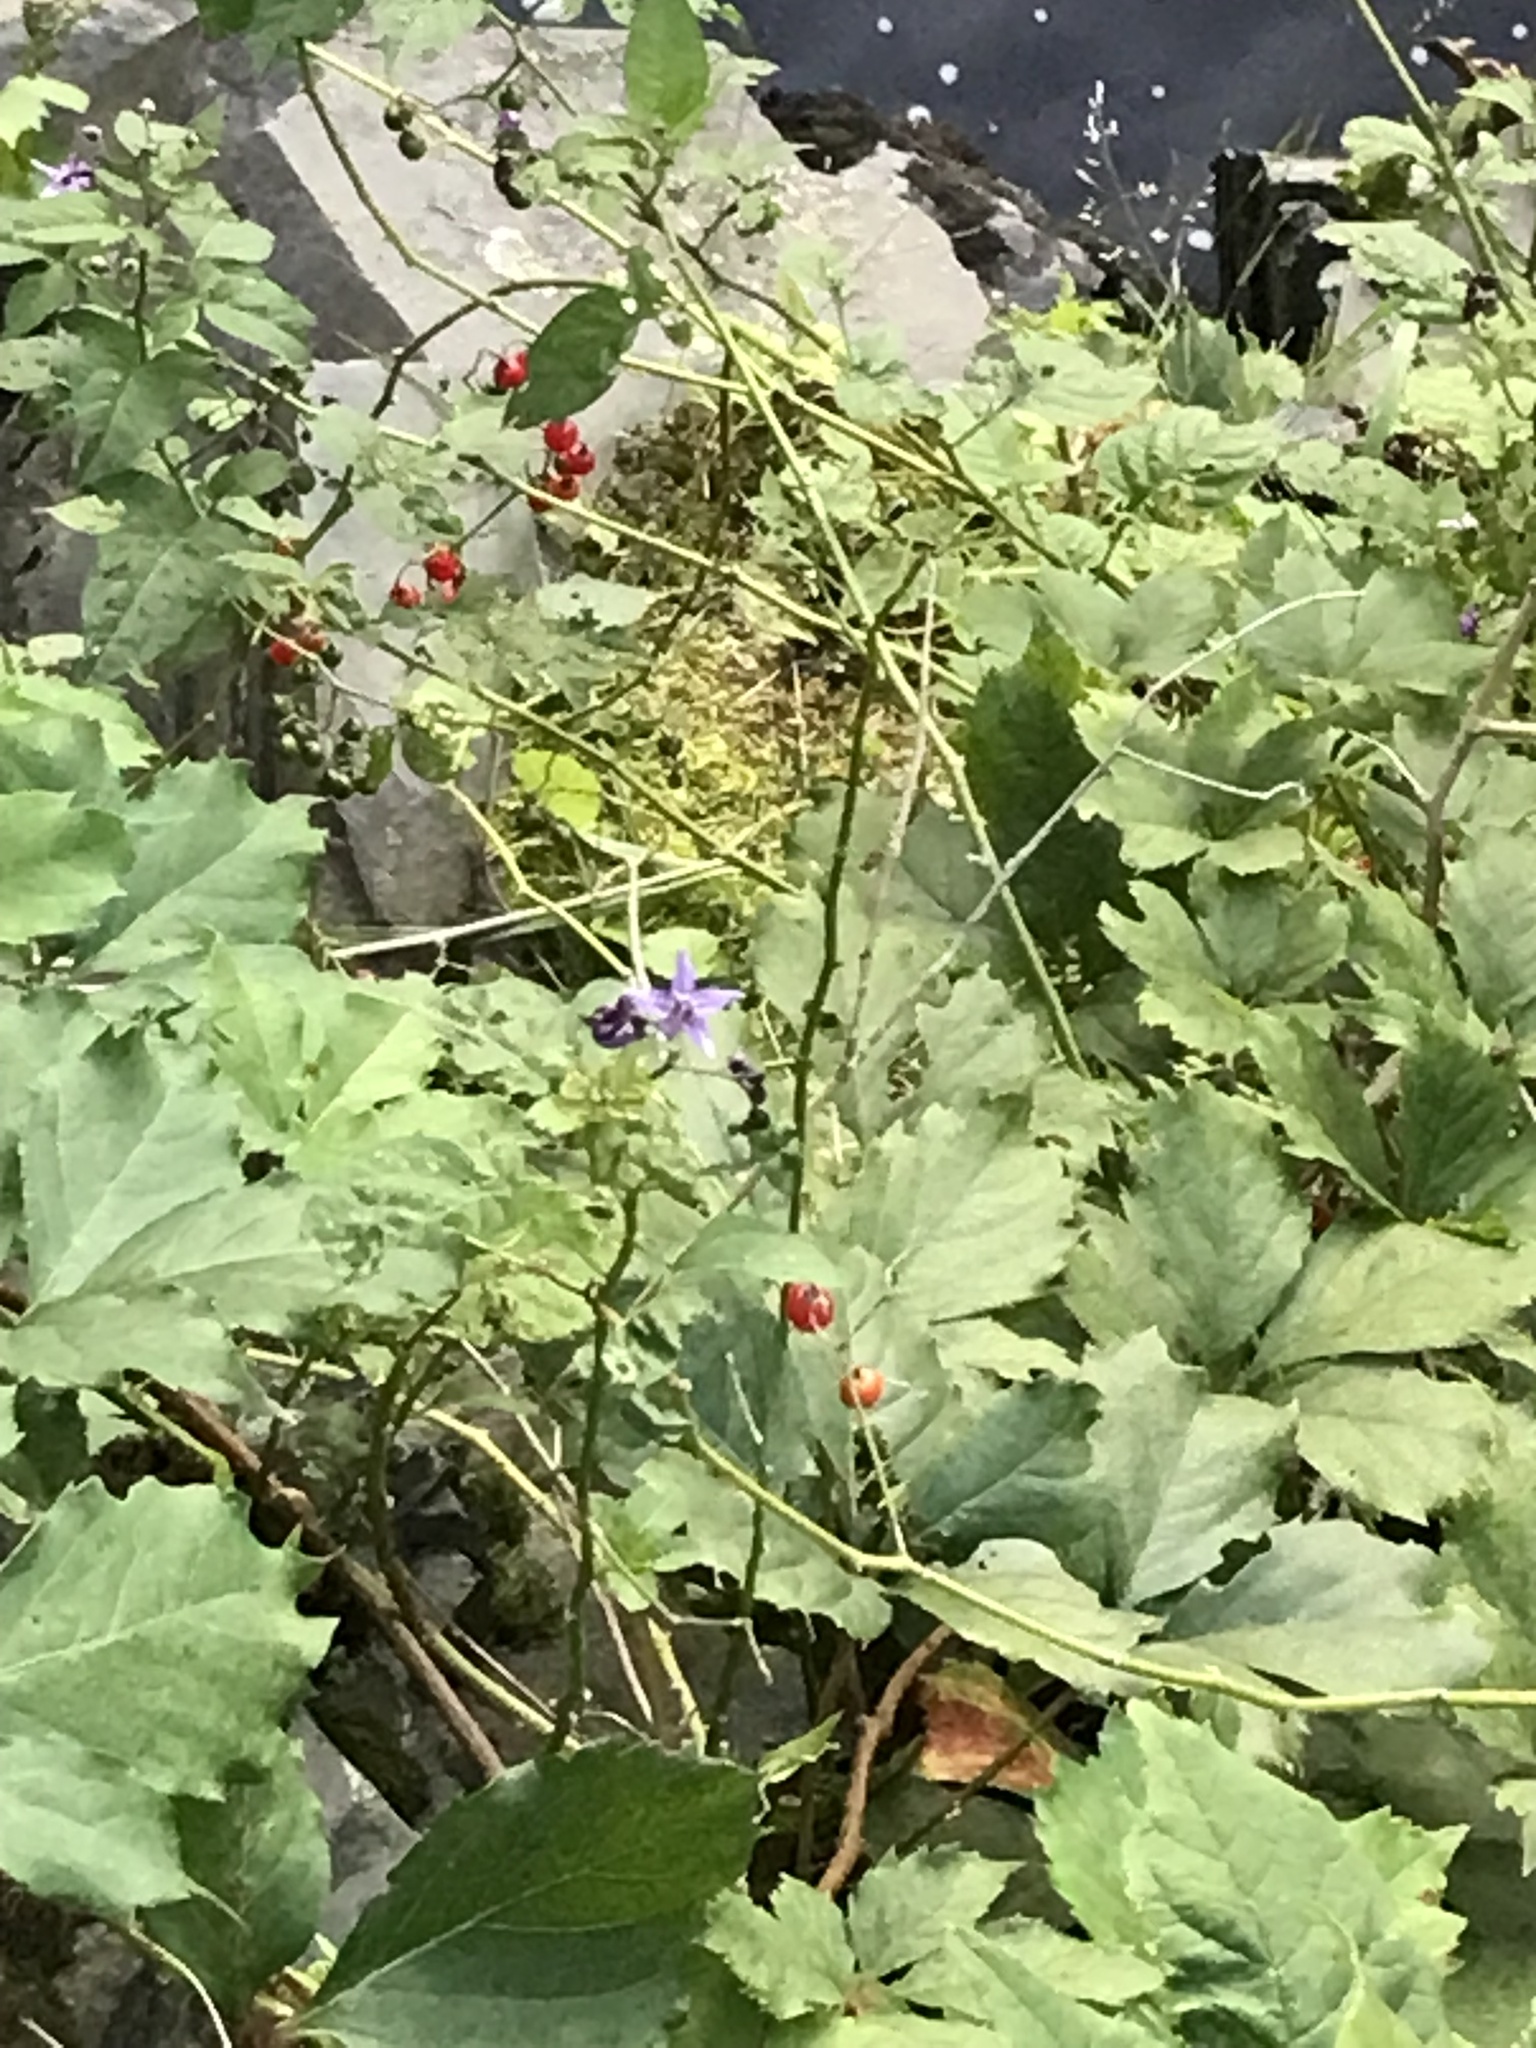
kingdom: Plantae
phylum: Tracheophyta
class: Magnoliopsida
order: Solanales
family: Solanaceae
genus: Solanum
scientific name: Solanum dulcamara
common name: Climbing nightshade
